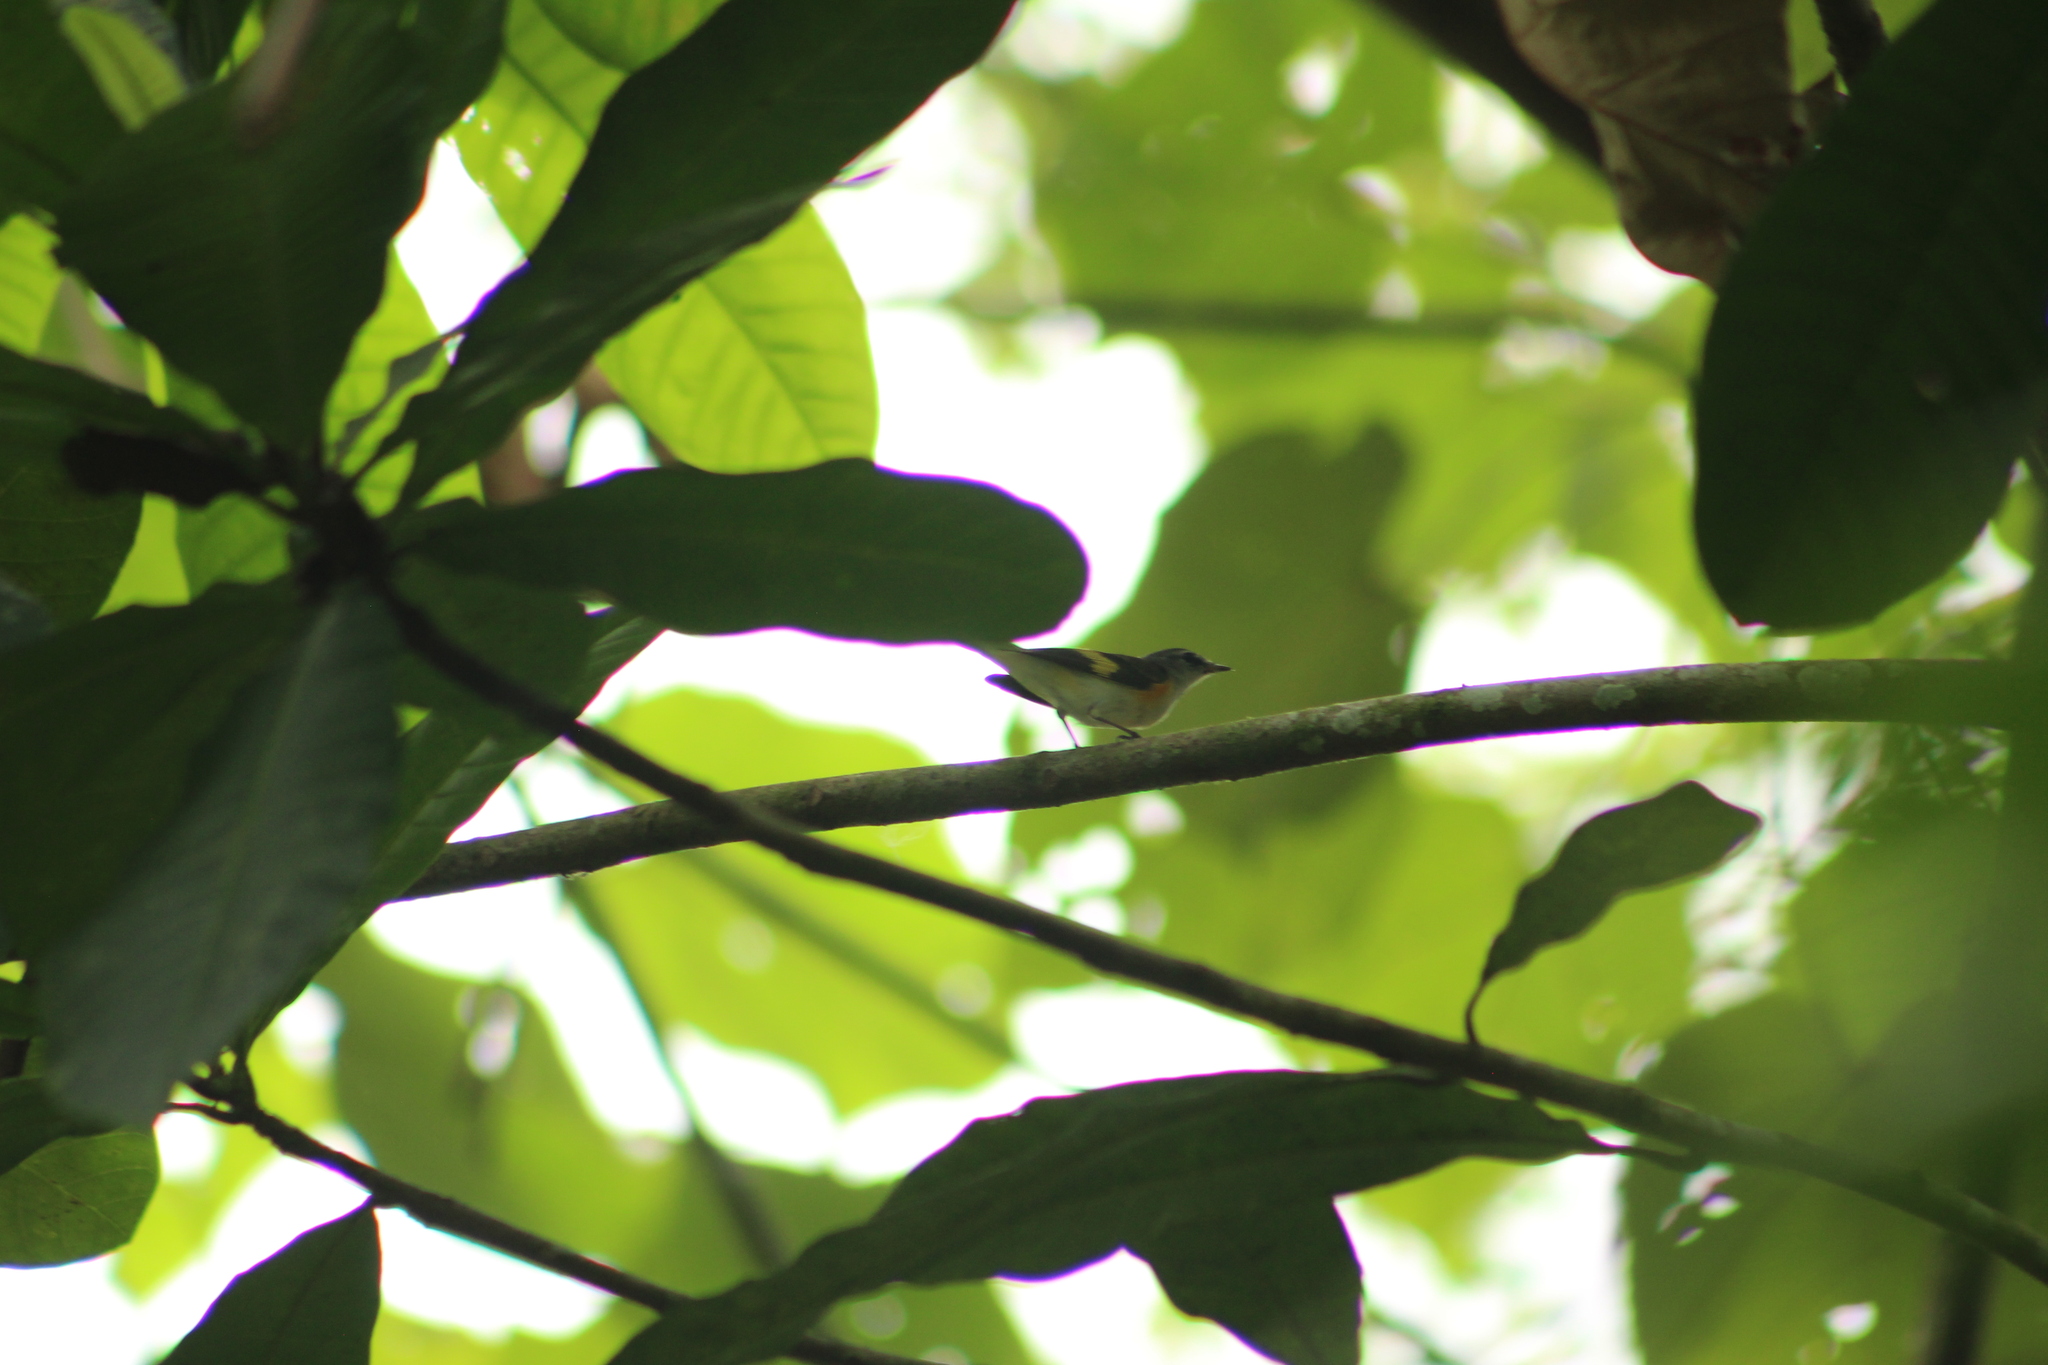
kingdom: Animalia
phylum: Chordata
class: Aves
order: Passeriformes
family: Parulidae
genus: Setophaga
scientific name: Setophaga ruticilla
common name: American redstart
